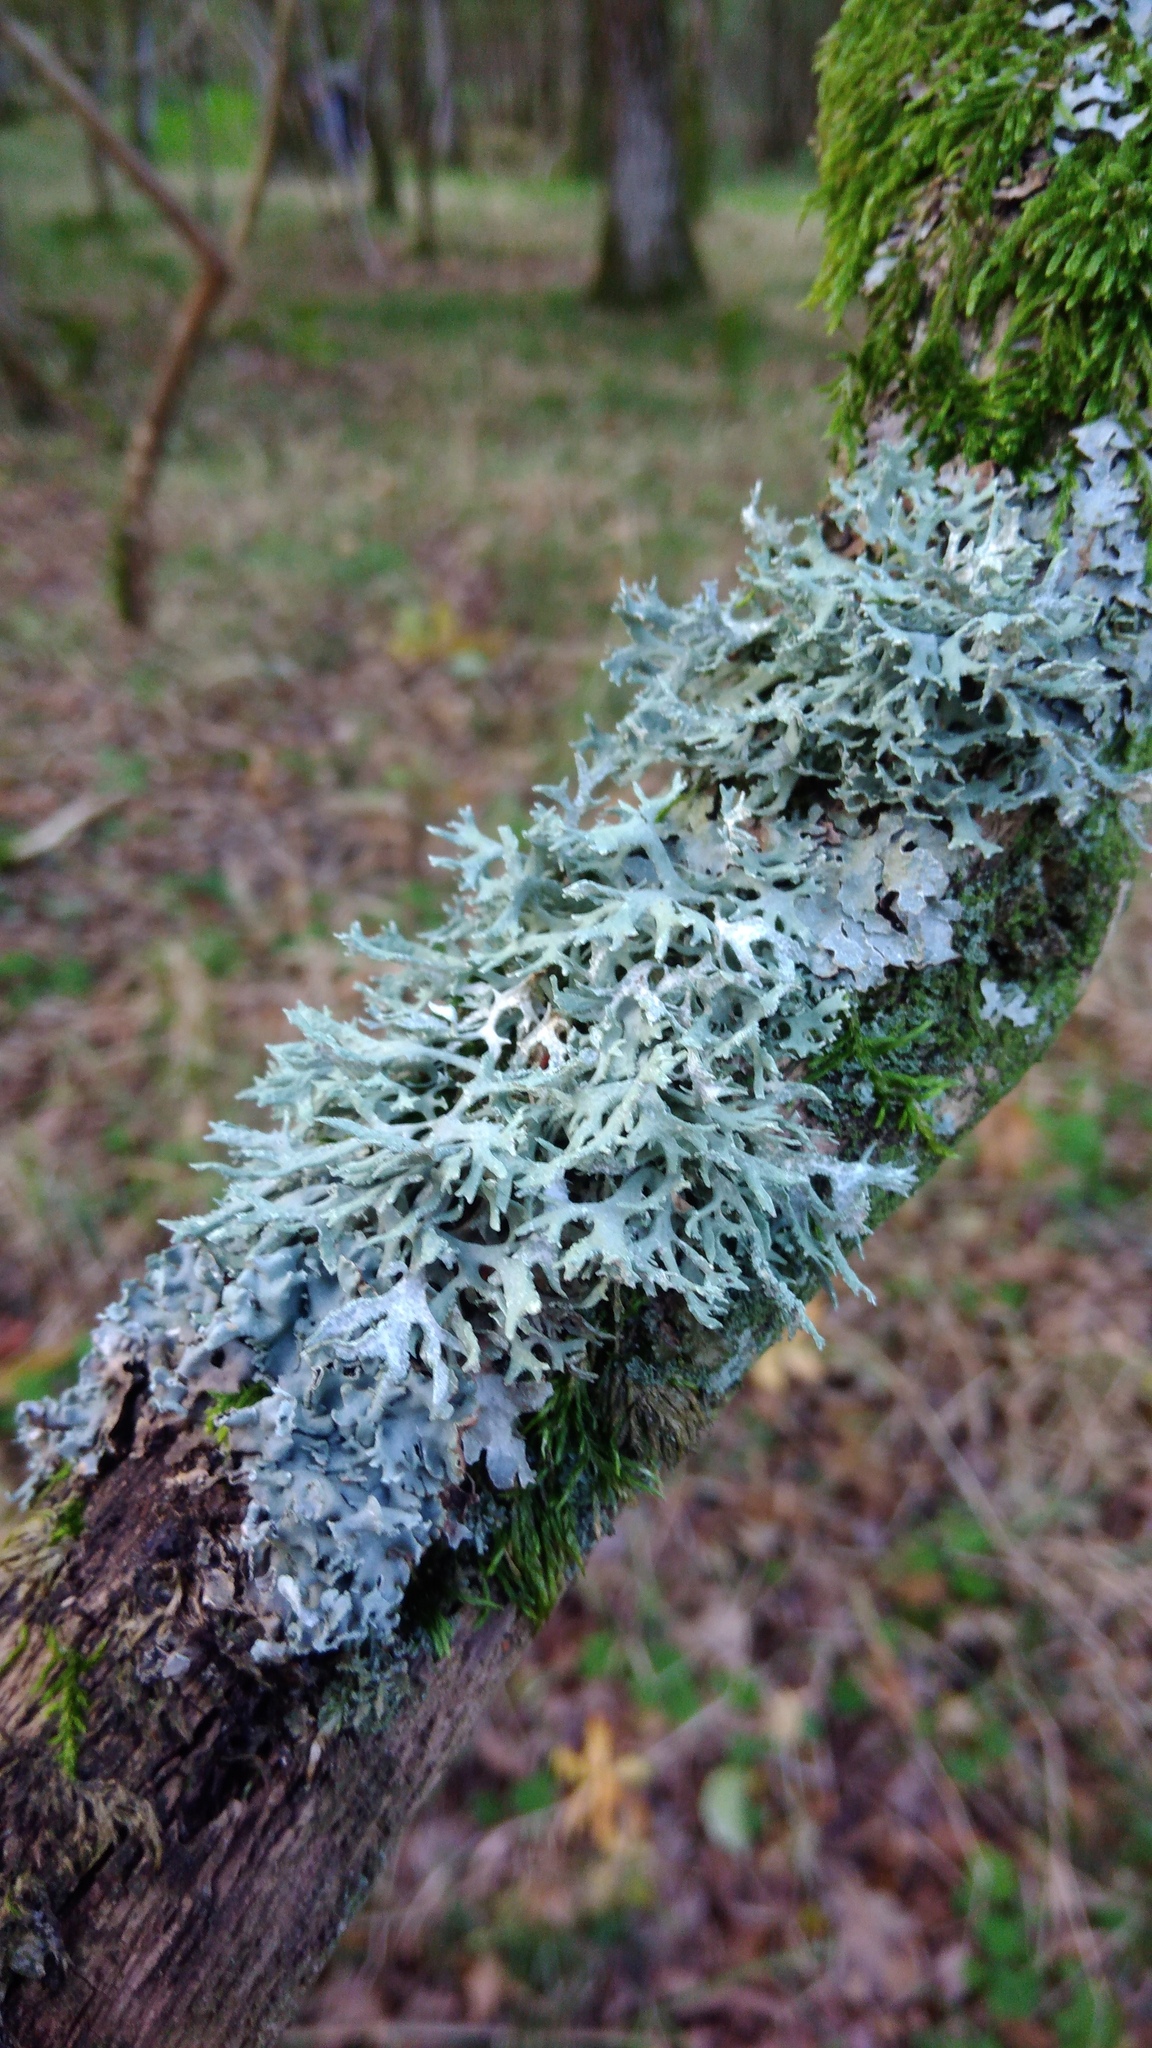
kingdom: Fungi
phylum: Ascomycota
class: Lecanoromycetes
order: Lecanorales
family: Parmeliaceae
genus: Evernia
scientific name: Evernia prunastri
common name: Oak moss
